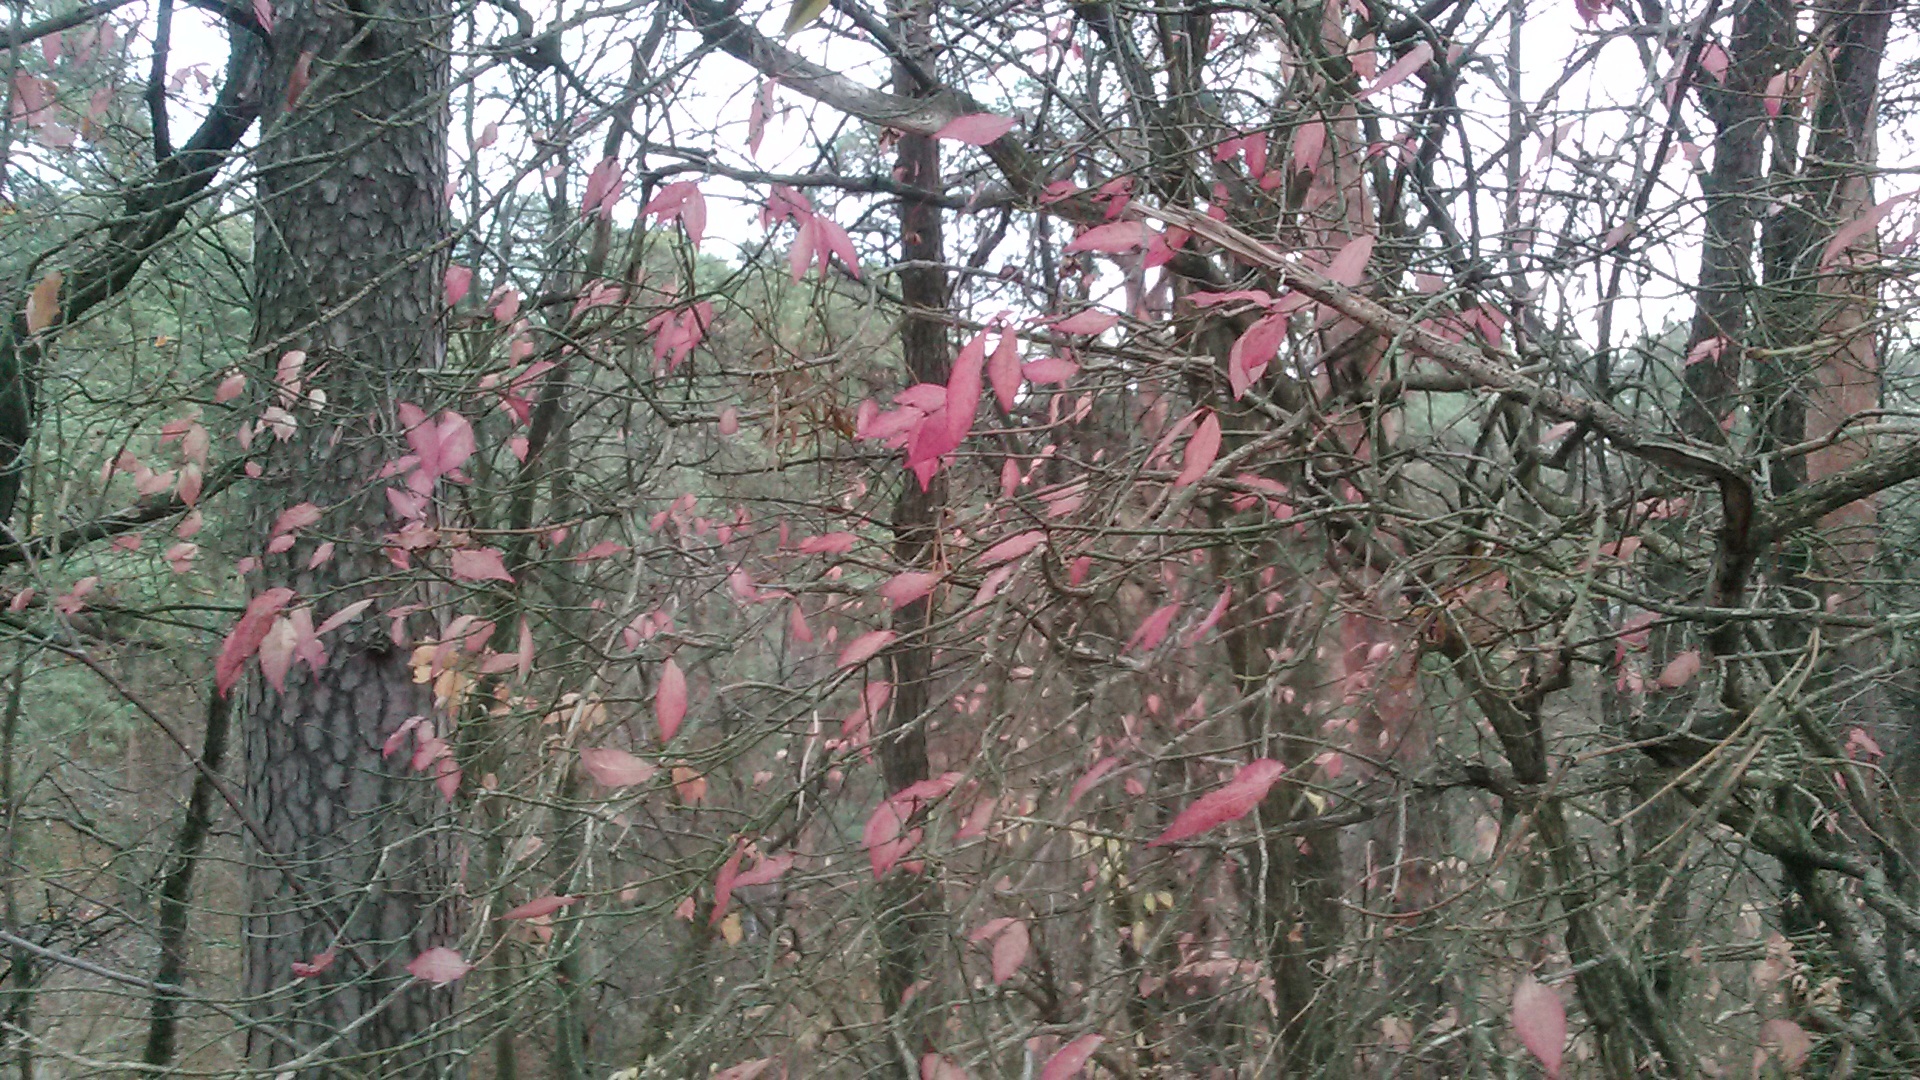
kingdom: Plantae
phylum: Tracheophyta
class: Magnoliopsida
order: Celastrales
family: Celastraceae
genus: Euonymus
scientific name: Euonymus verrucosus
